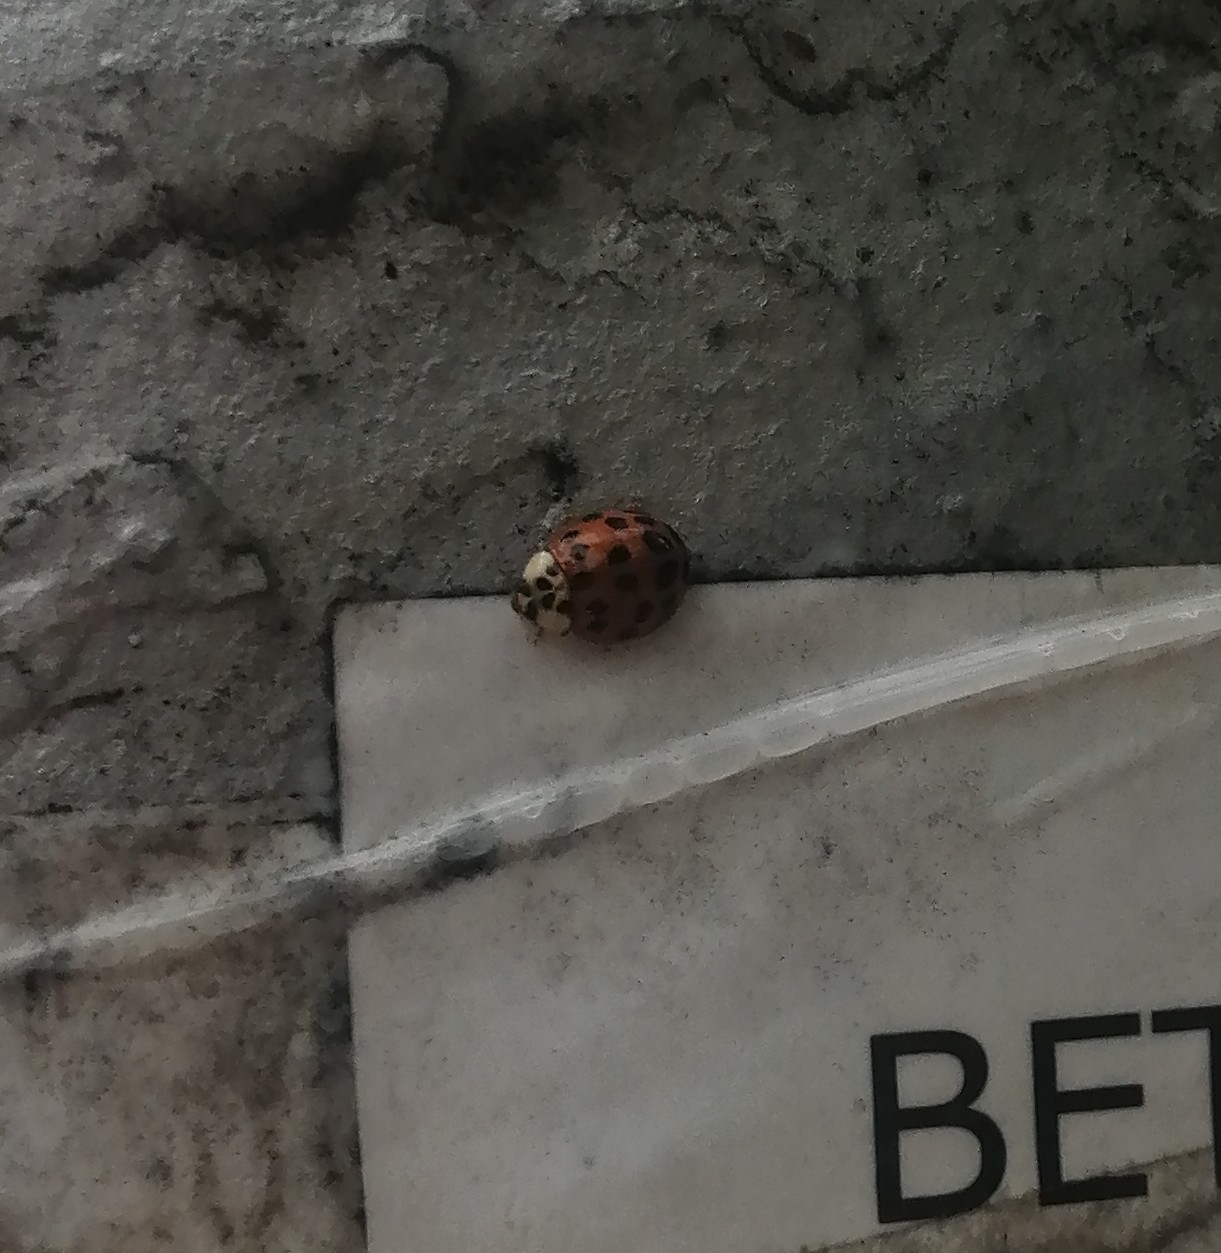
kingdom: Animalia
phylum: Arthropoda
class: Insecta
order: Coleoptera
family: Coccinellidae
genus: Harmonia
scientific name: Harmonia axyridis
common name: Harlequin ladybird
